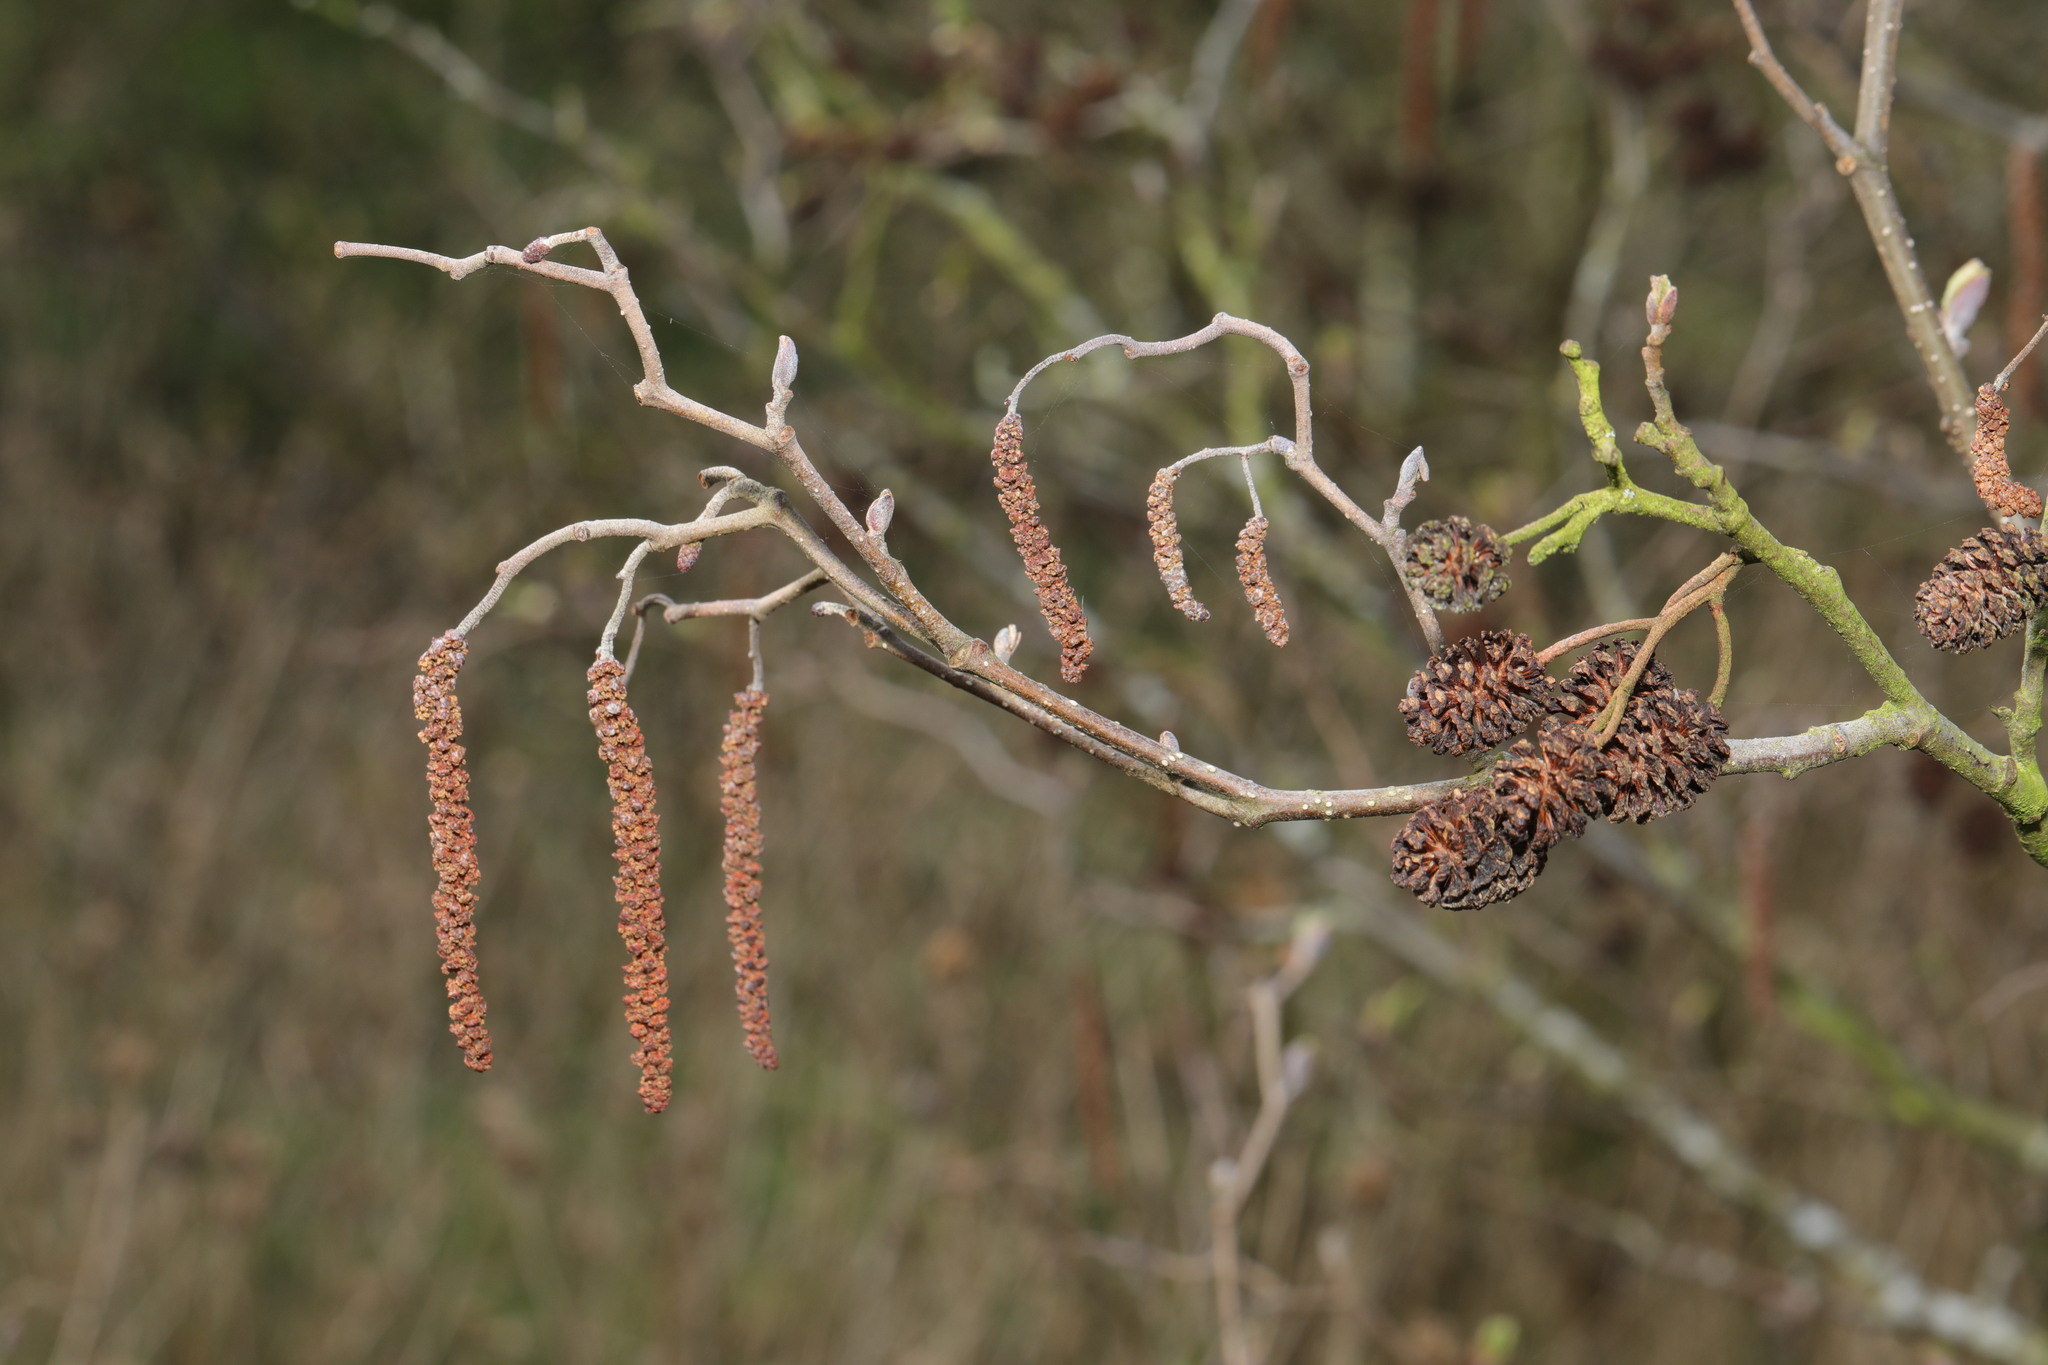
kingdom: Plantae
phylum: Tracheophyta
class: Magnoliopsida
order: Fagales
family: Betulaceae
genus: Alnus
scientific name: Alnus glutinosa
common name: Black alder
